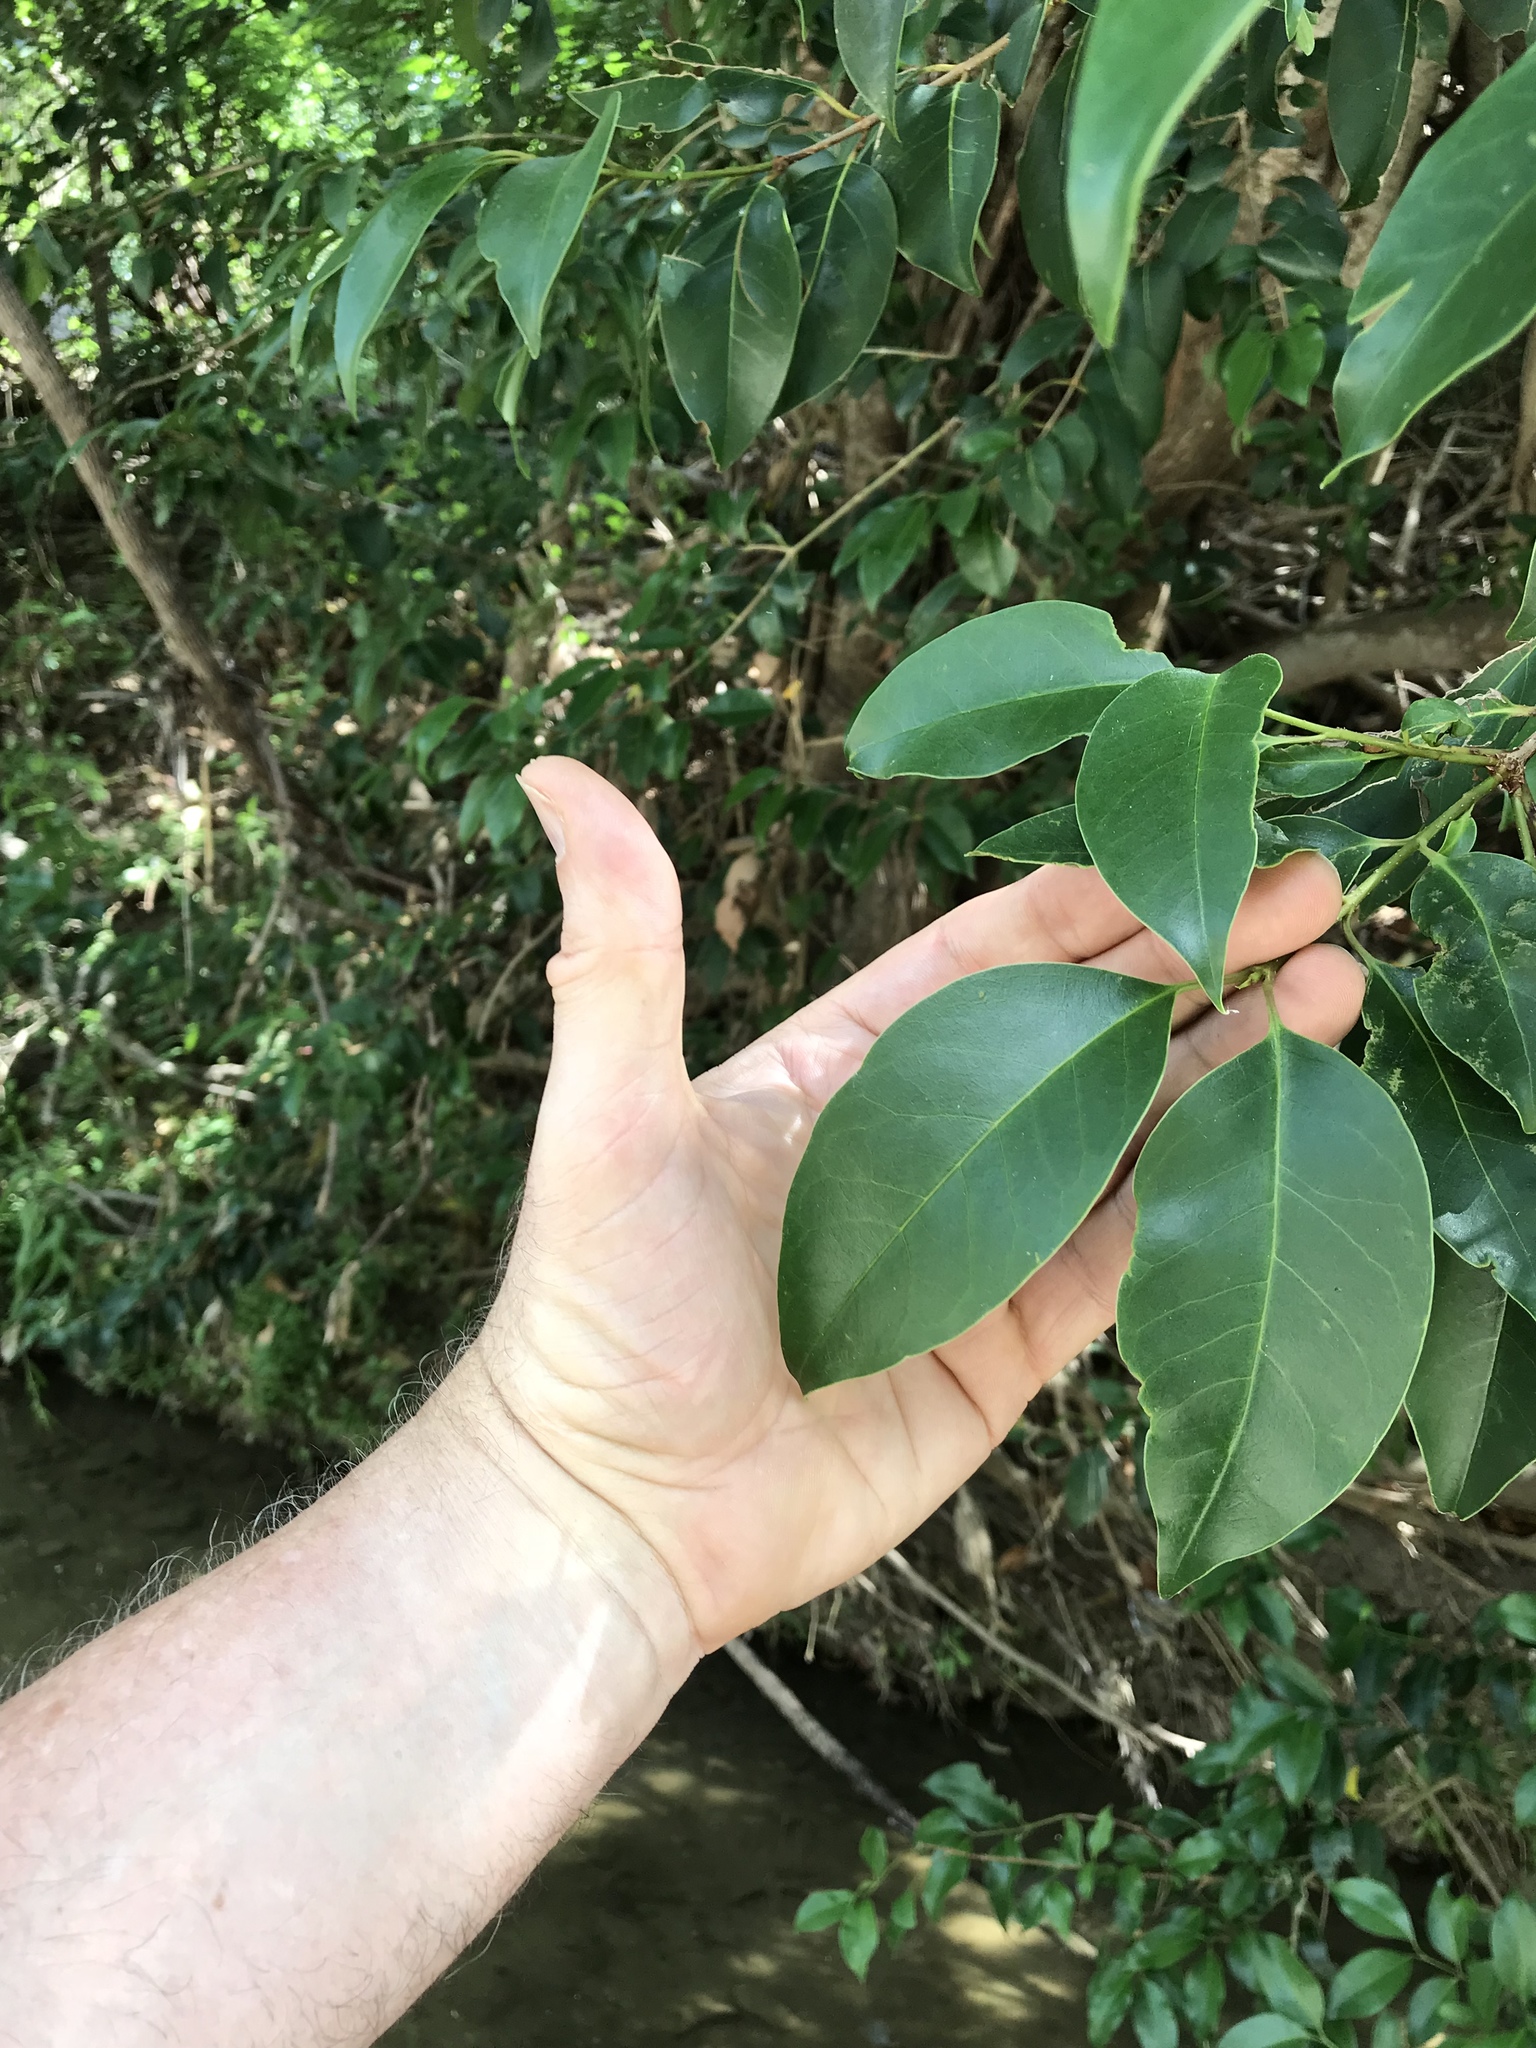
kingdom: Plantae
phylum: Tracheophyta
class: Magnoliopsida
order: Lamiales
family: Oleaceae
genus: Ligustrum
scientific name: Ligustrum lucidum
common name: Glossy privet
